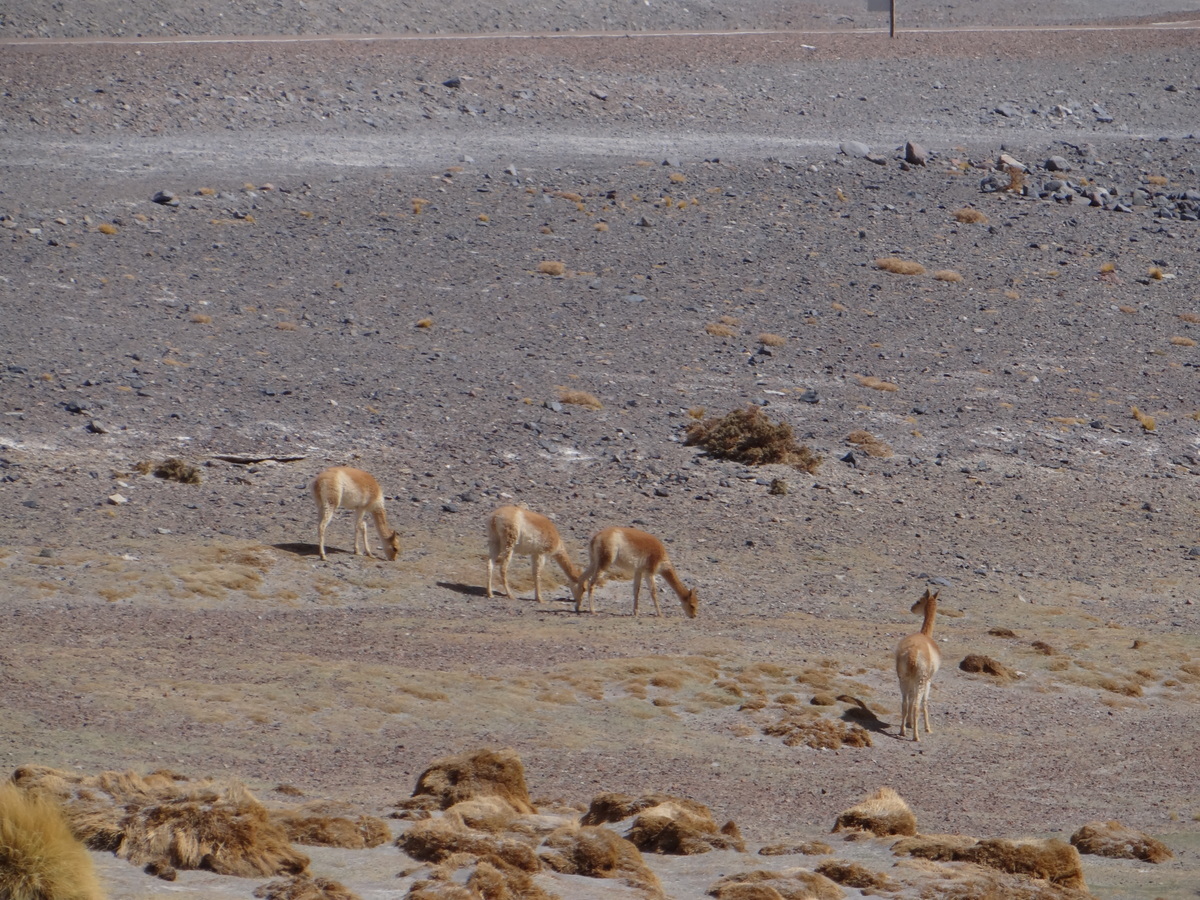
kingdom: Animalia
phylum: Chordata
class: Mammalia
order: Artiodactyla
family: Camelidae
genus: Vicugna
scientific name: Vicugna vicugna
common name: Vicugna
